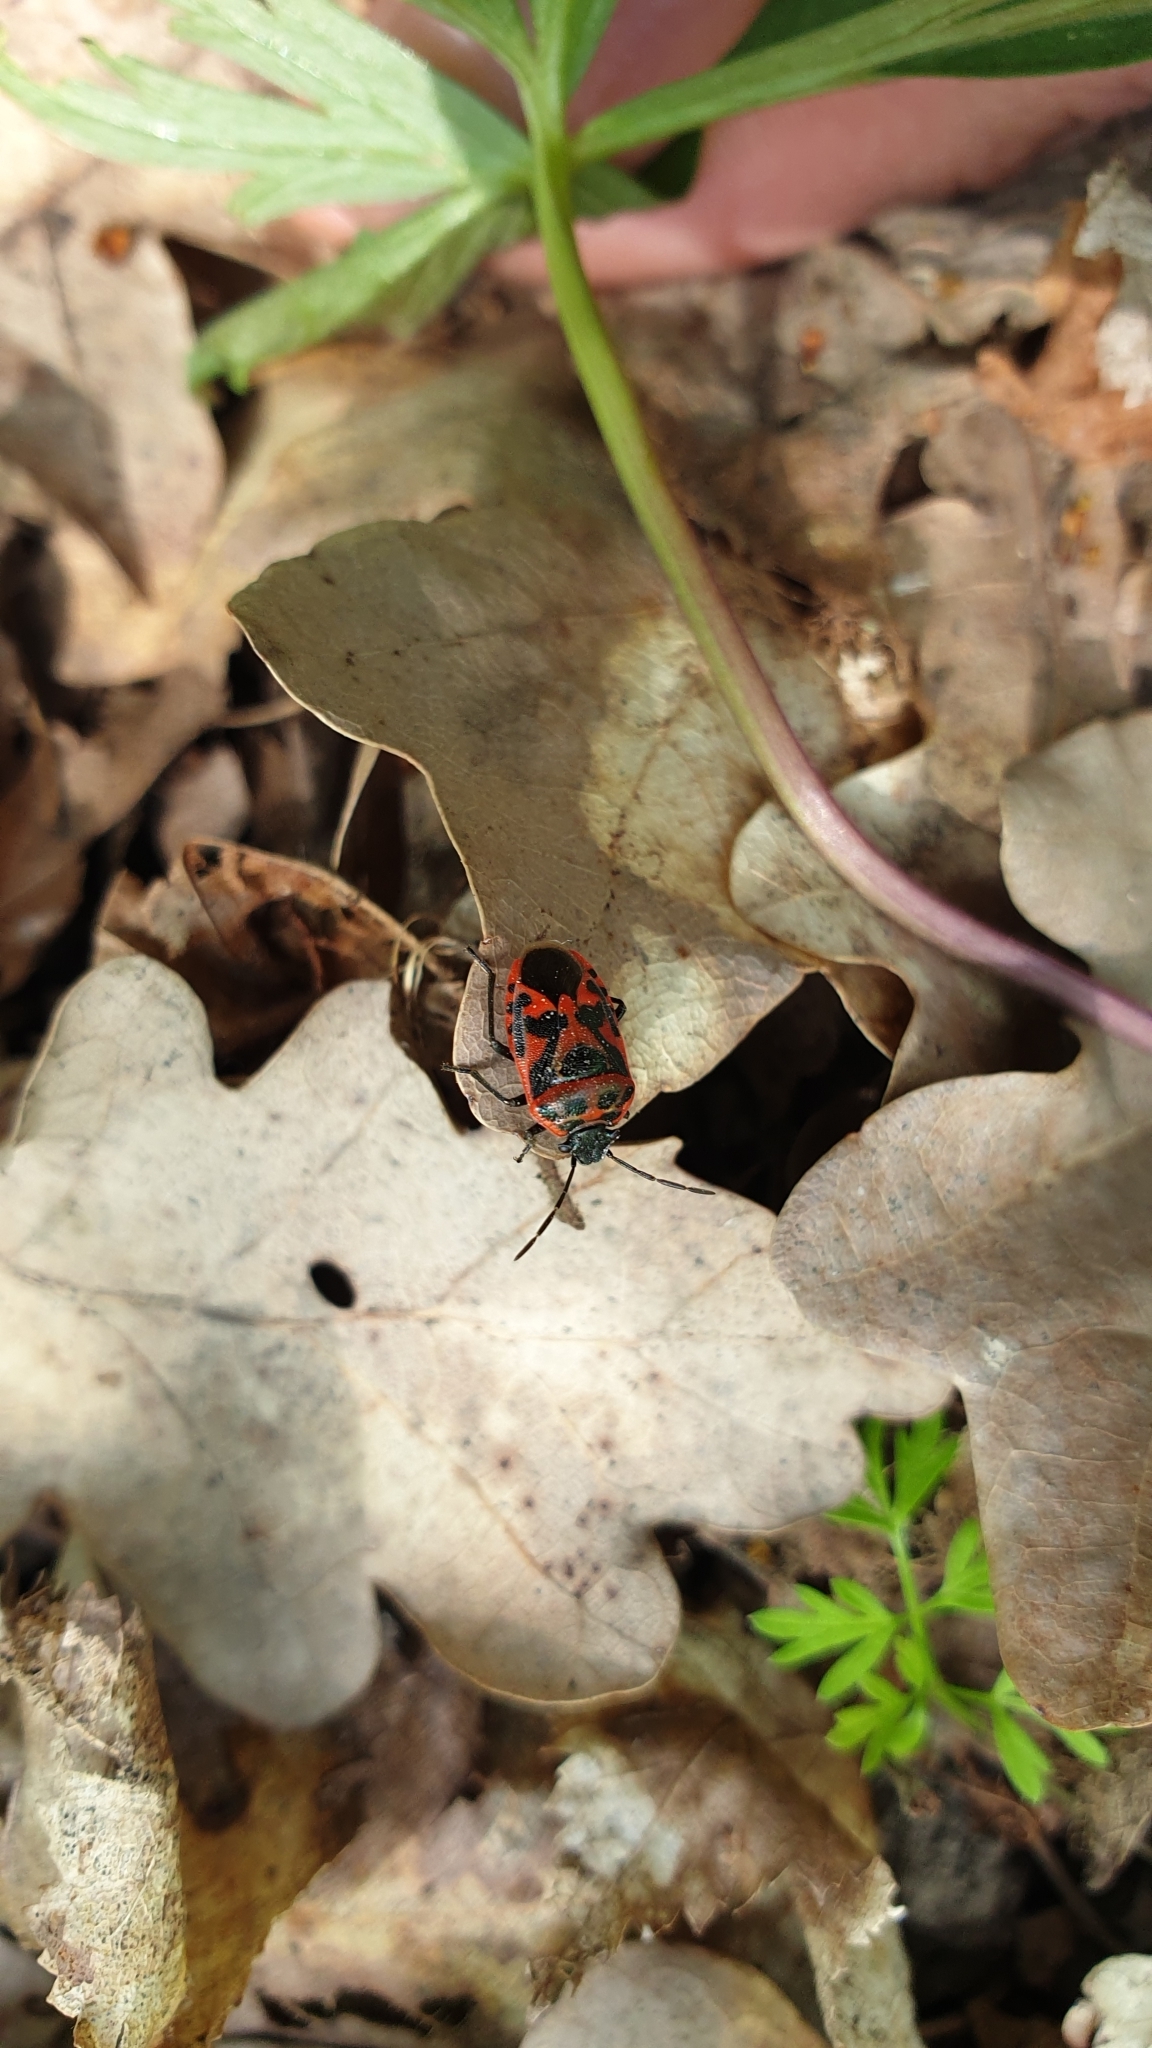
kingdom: Animalia
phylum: Arthropoda
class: Insecta
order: Hemiptera
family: Pentatomidae
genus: Eurydema
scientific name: Eurydema ornata
